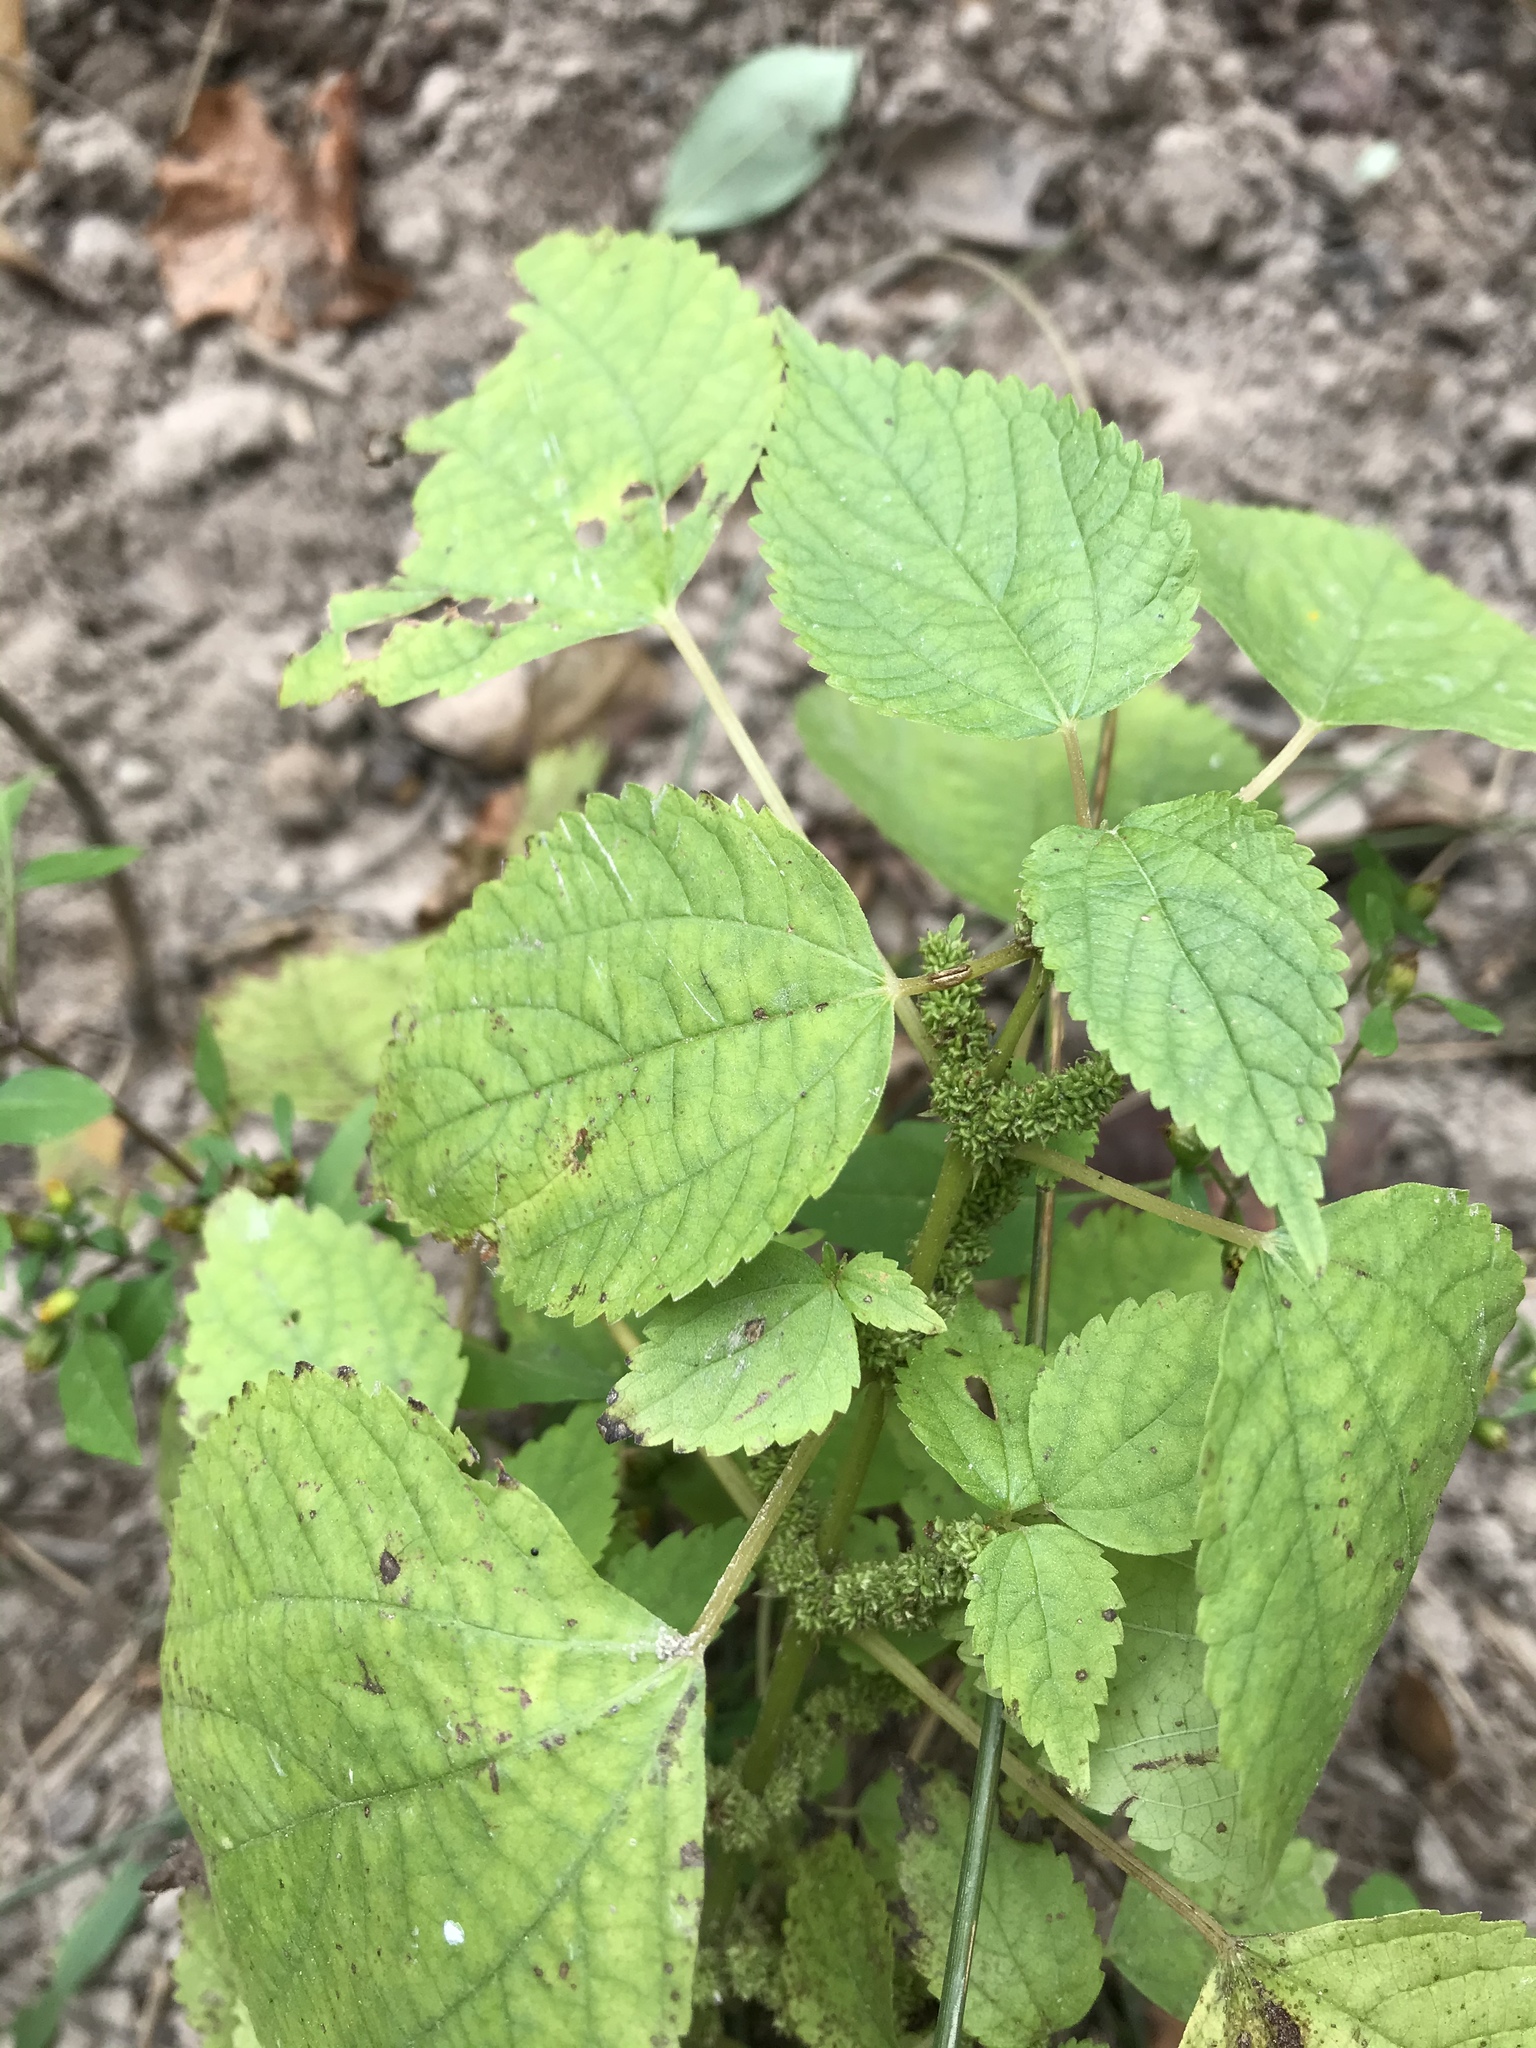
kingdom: Plantae
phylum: Tracheophyta
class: Magnoliopsida
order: Rosales
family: Urticaceae
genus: Boehmeria
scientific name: Boehmeria cylindrica
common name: Bog-hemp
